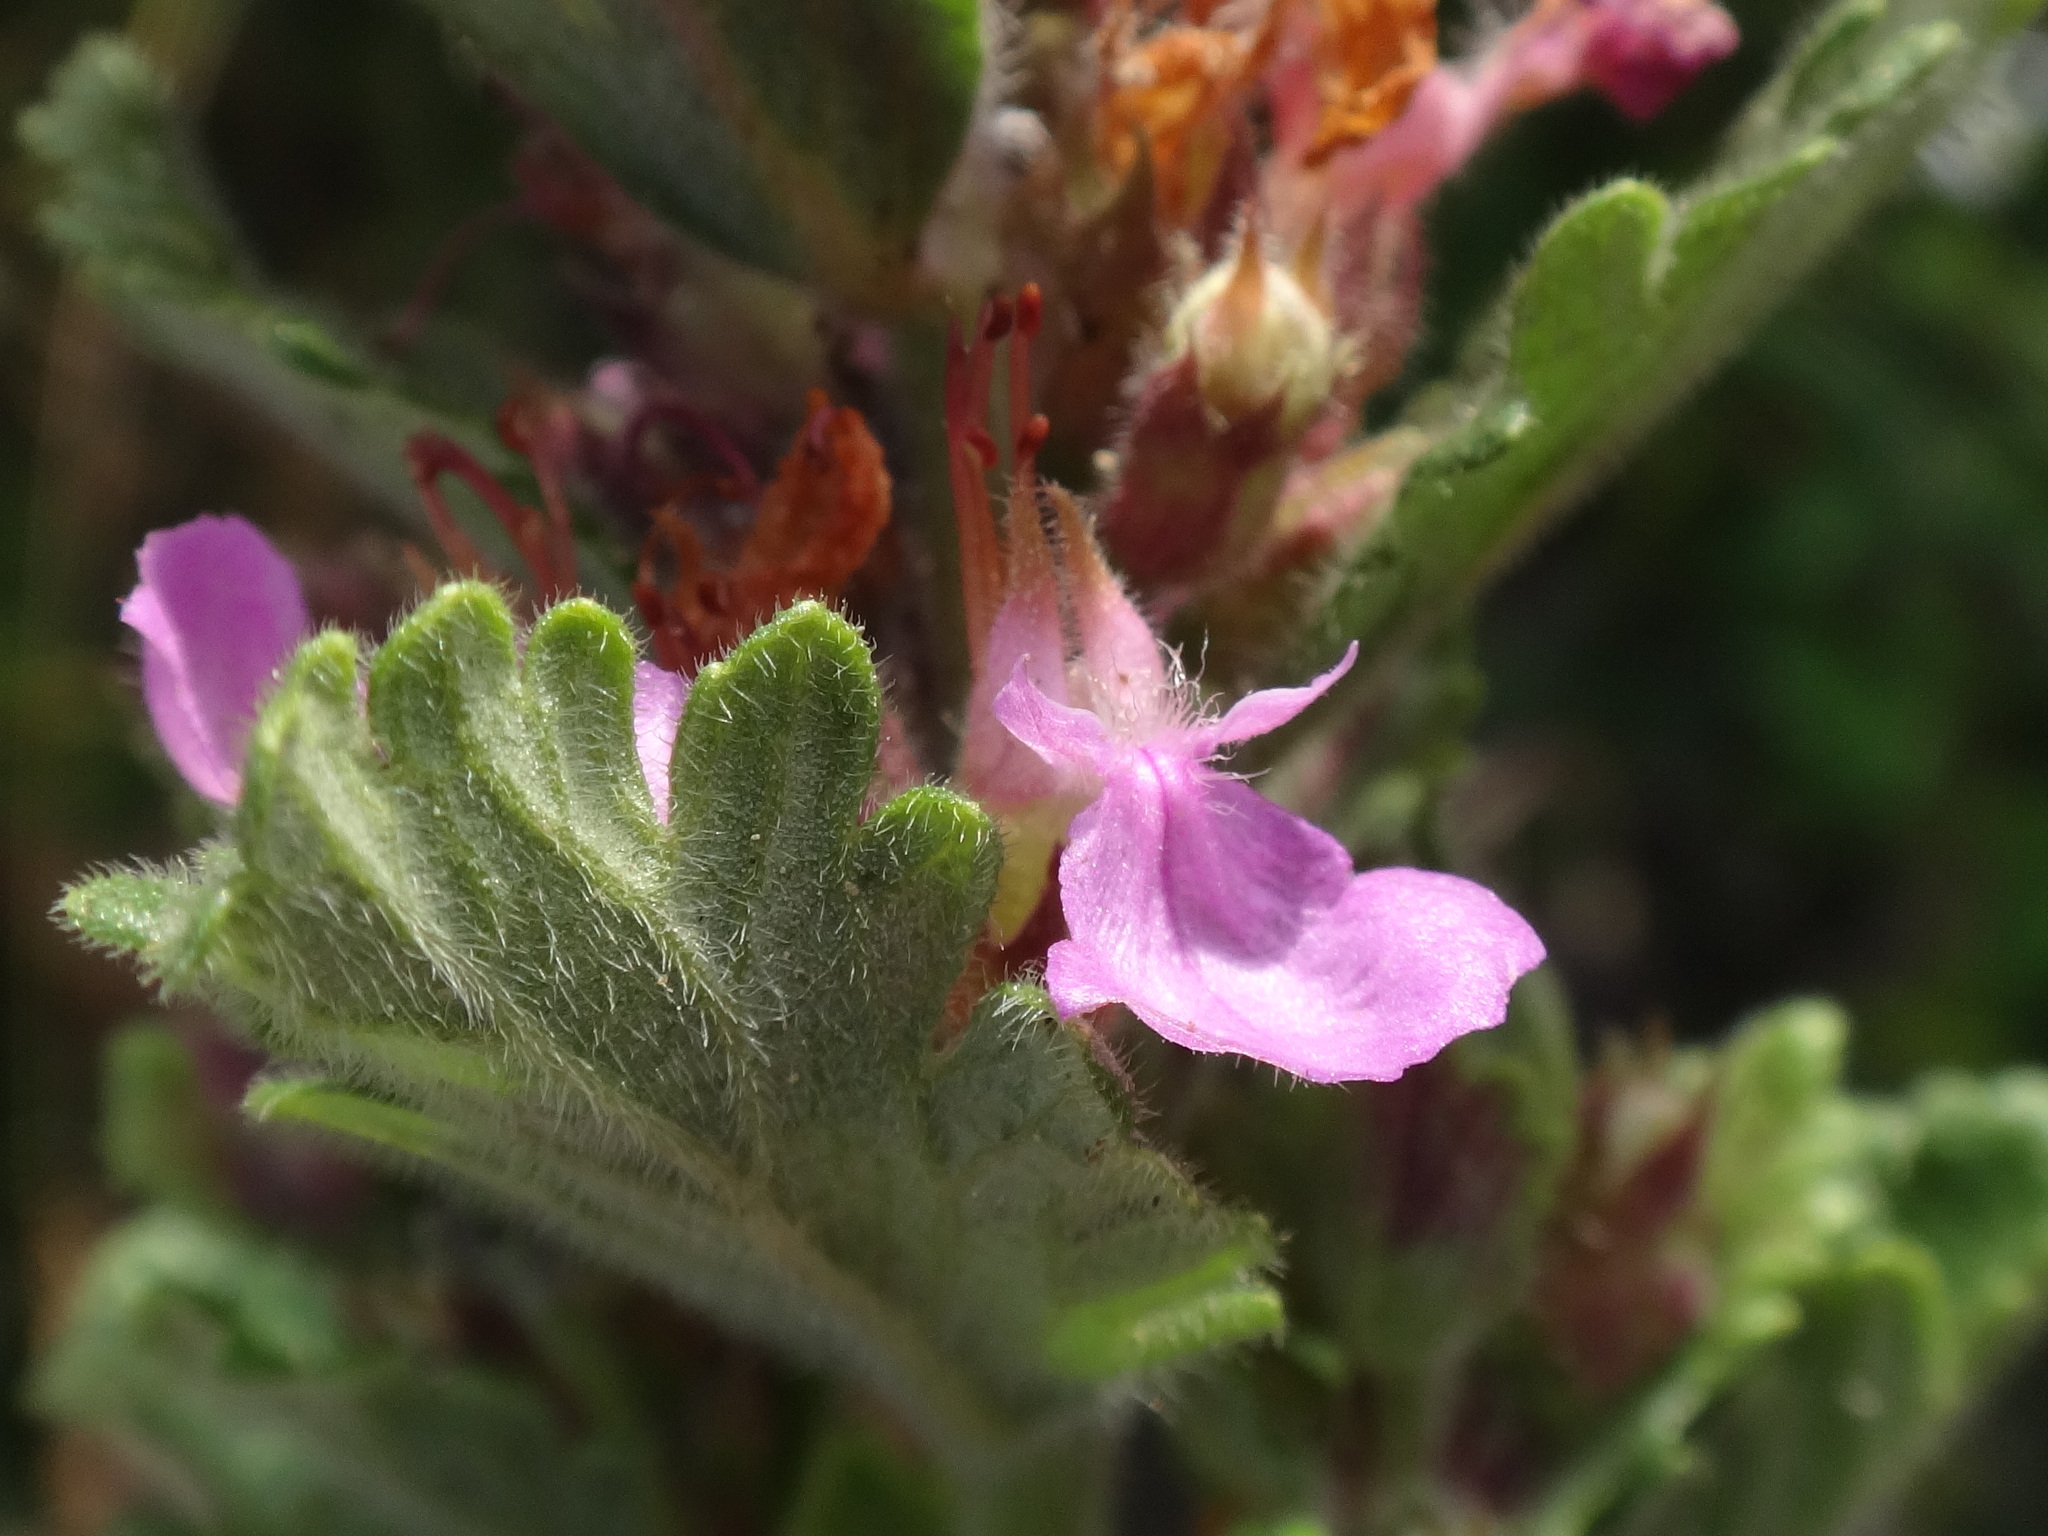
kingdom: Plantae
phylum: Tracheophyta
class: Magnoliopsida
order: Lamiales
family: Lamiaceae
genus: Teucrium
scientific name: Teucrium chamaedrys
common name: Wall germander
